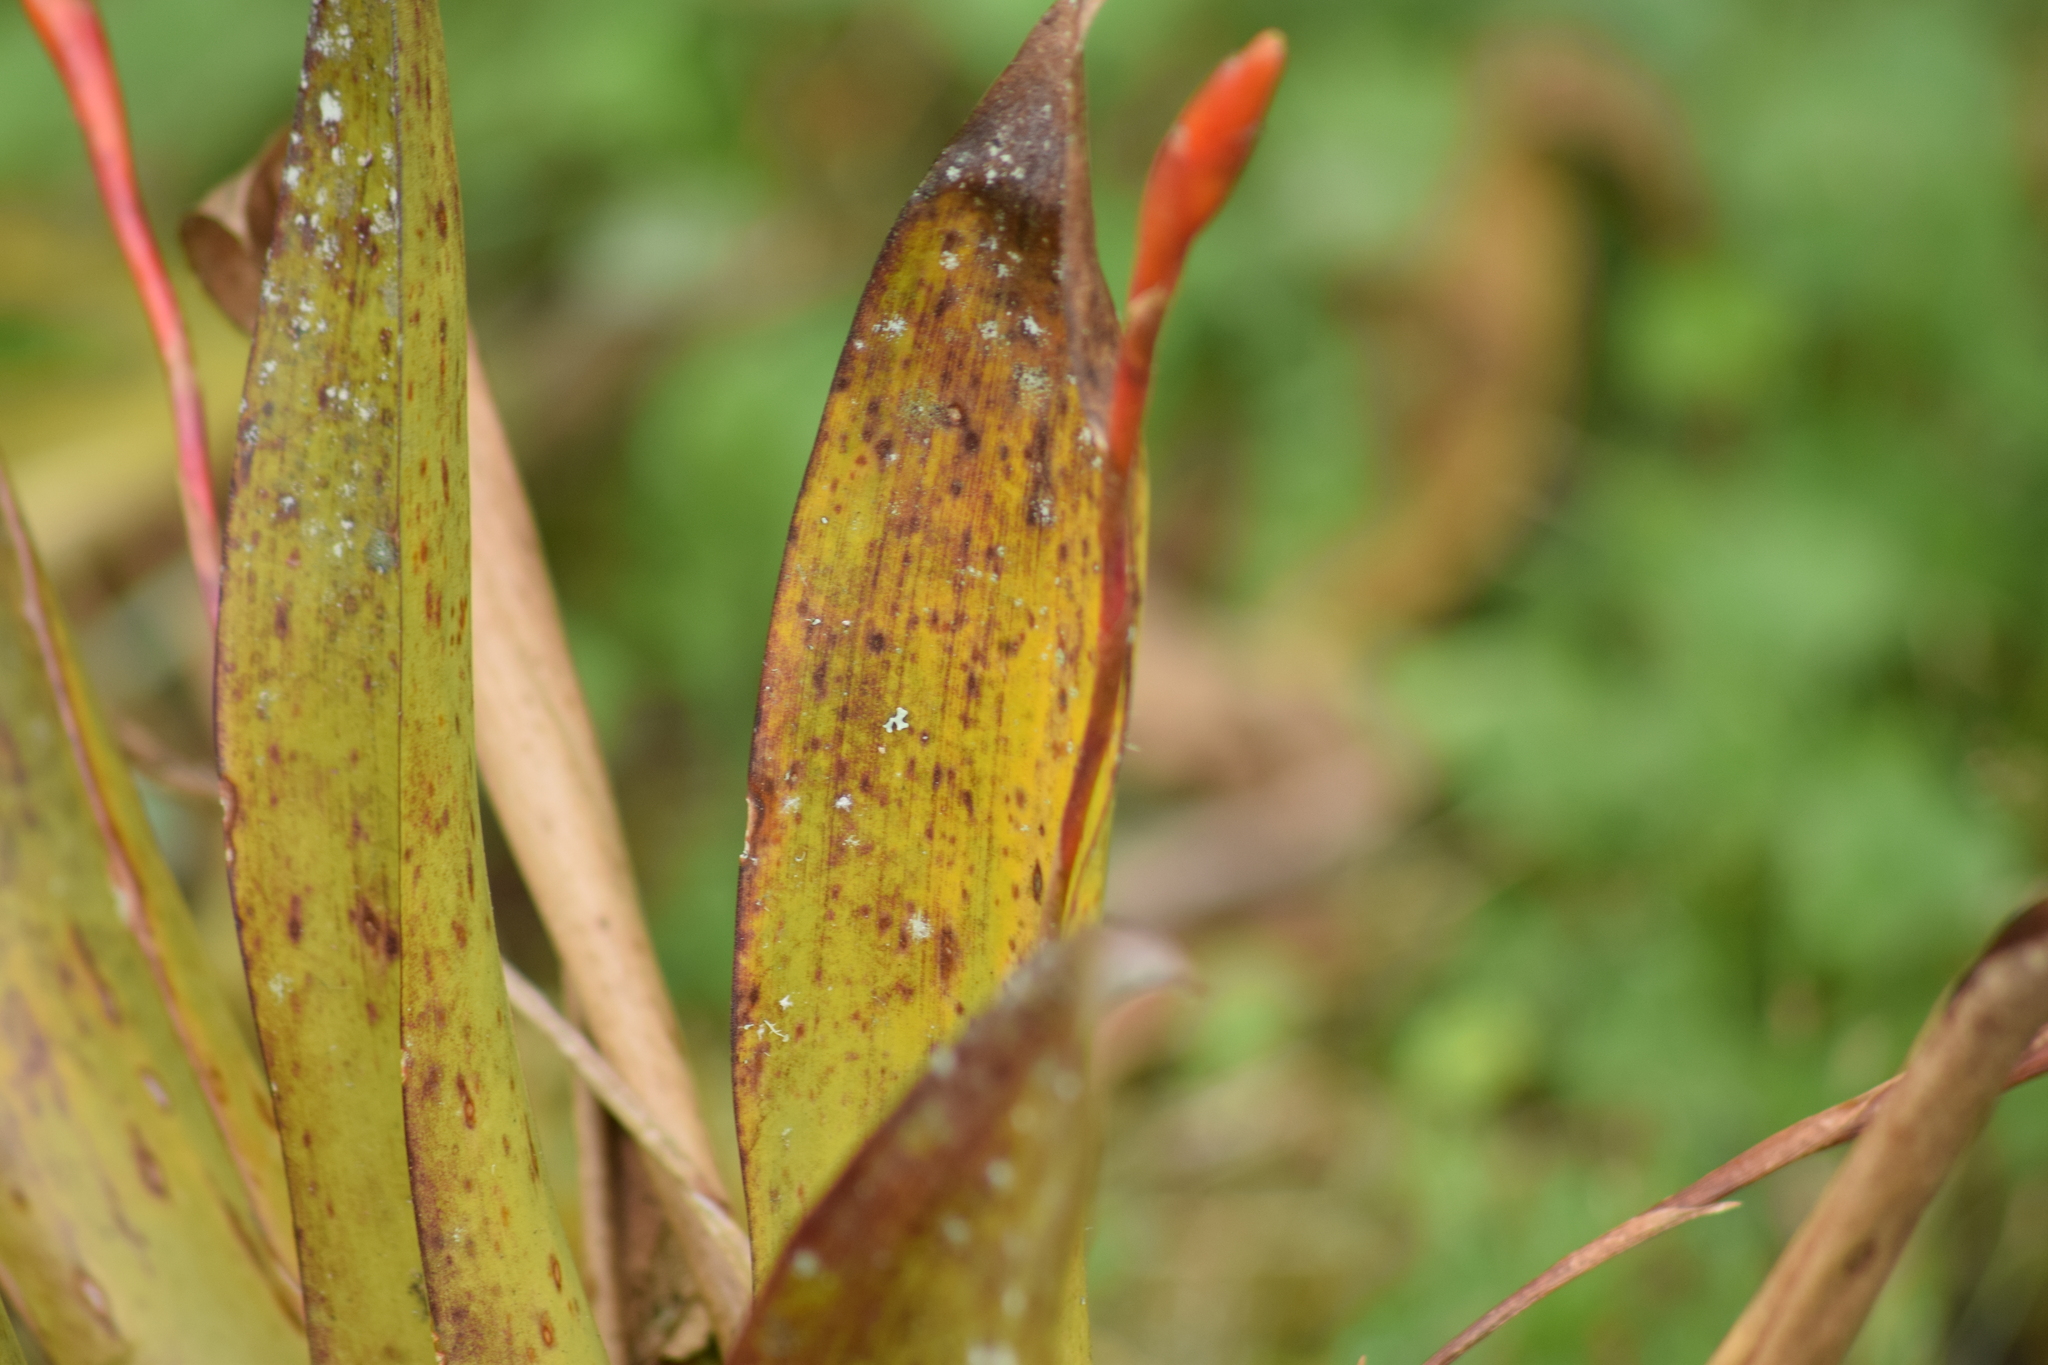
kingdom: Plantae
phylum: Tracheophyta
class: Liliopsida
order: Poales
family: Bromeliaceae
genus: Tillandsia
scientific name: Tillandsia complanata
